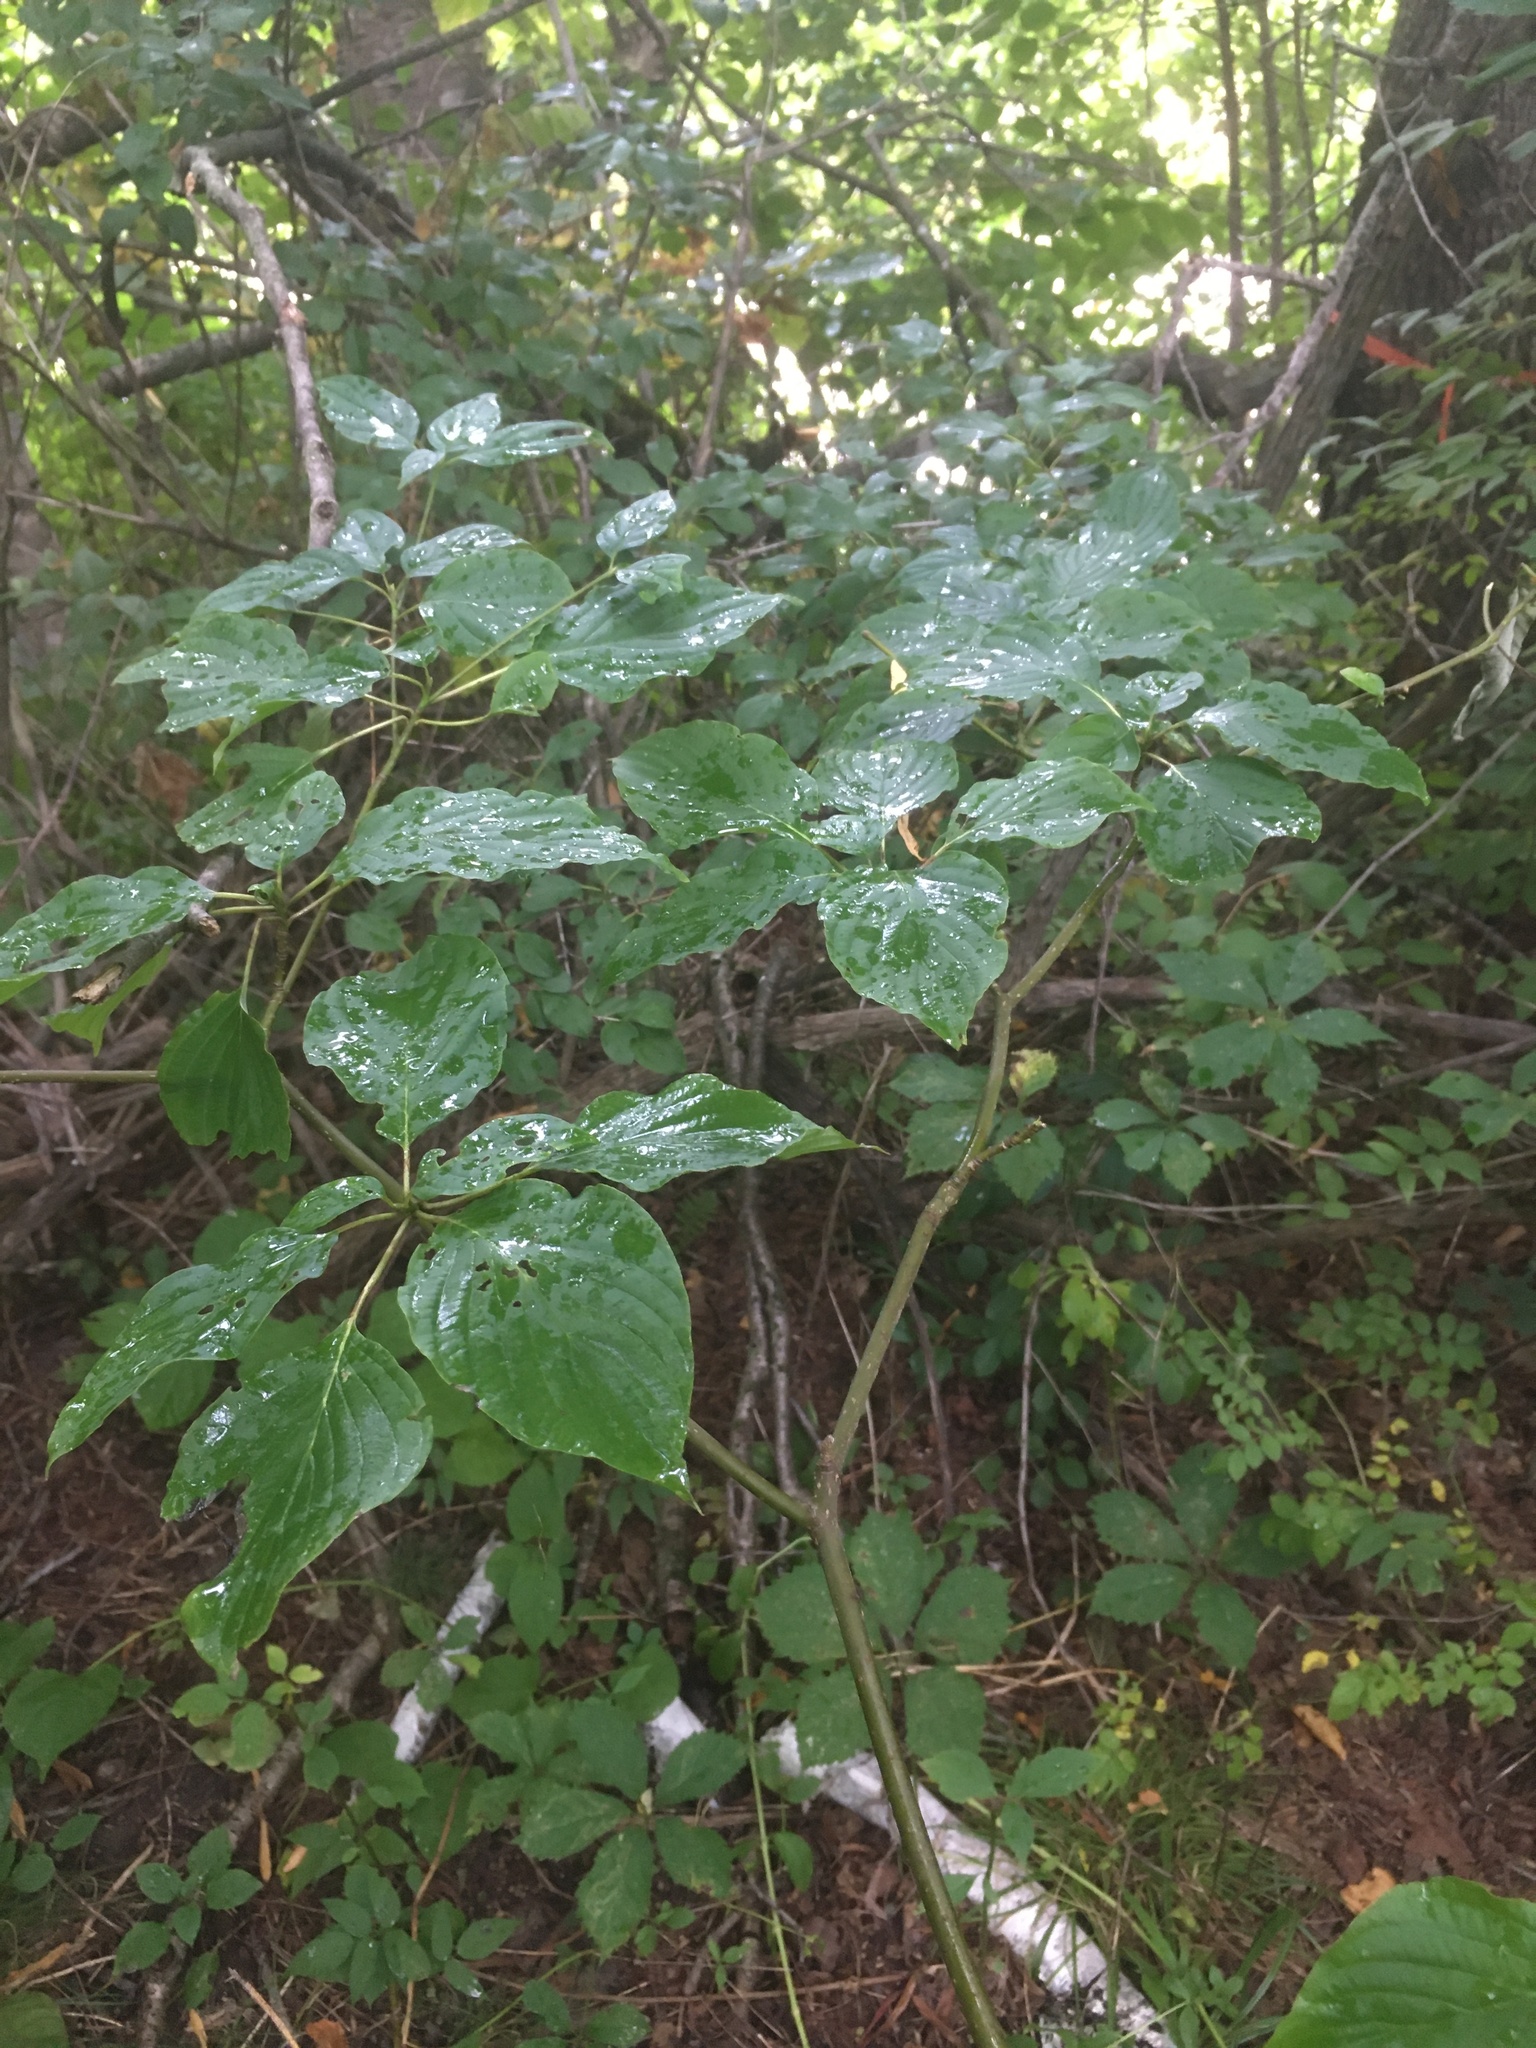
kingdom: Plantae
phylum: Tracheophyta
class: Magnoliopsida
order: Cornales
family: Cornaceae
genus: Cornus
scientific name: Cornus alternifolia
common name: Pagoda dogwood
